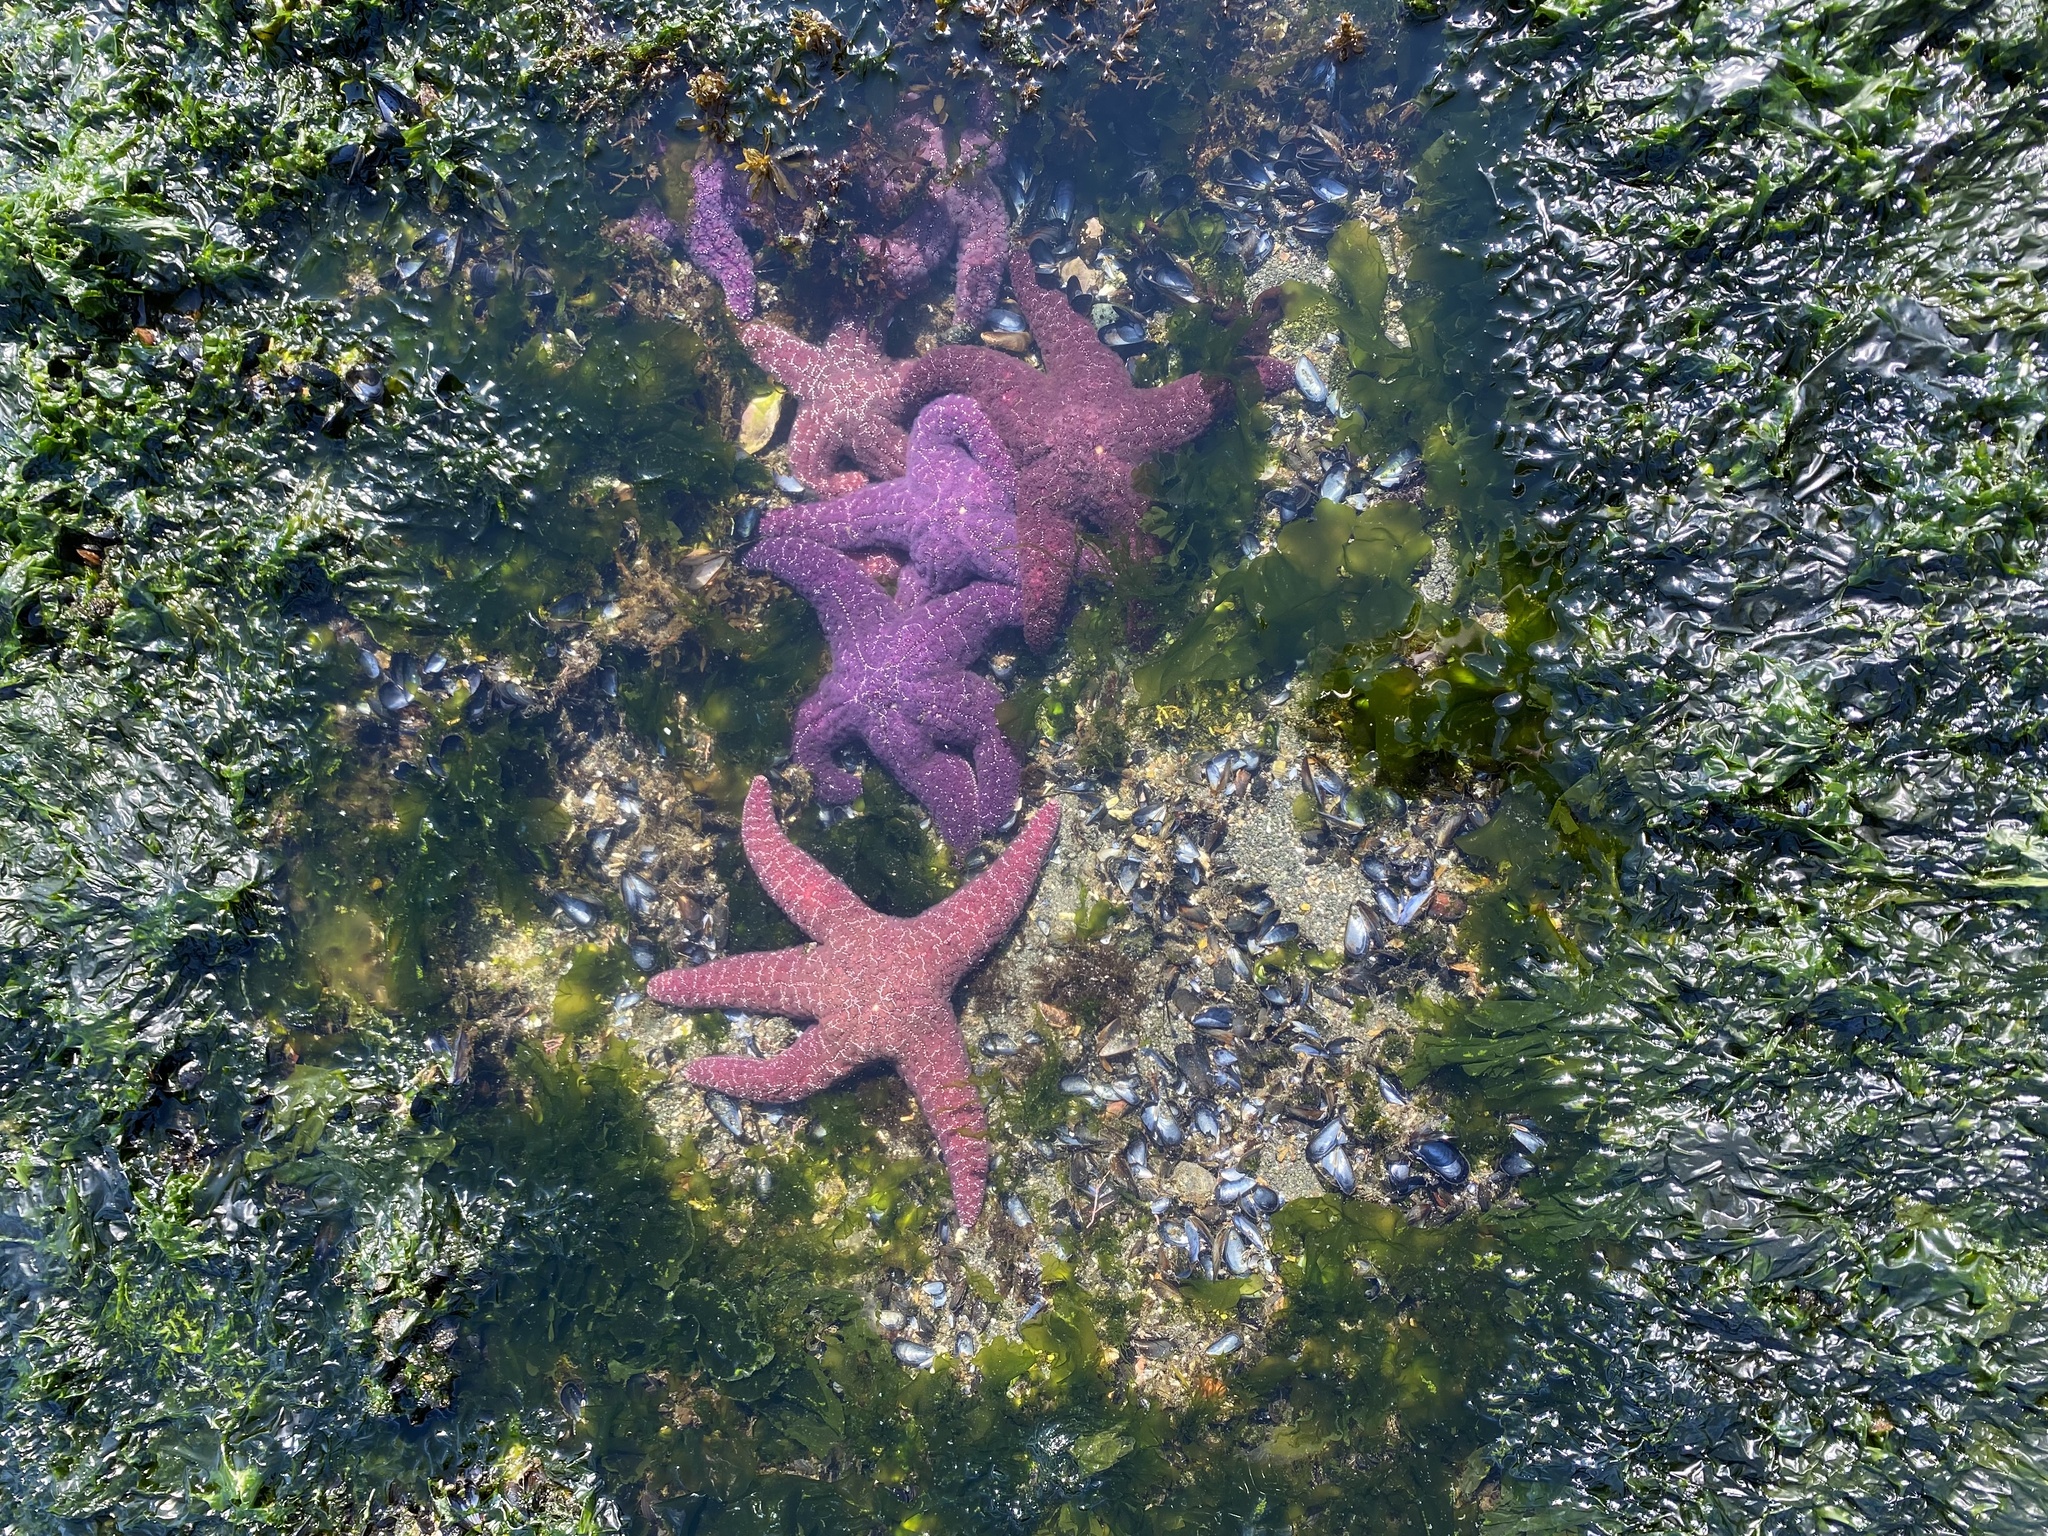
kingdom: Animalia
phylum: Echinodermata
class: Asteroidea
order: Forcipulatida
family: Asteriidae
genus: Pisaster
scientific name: Pisaster ochraceus
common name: Ochre stars
